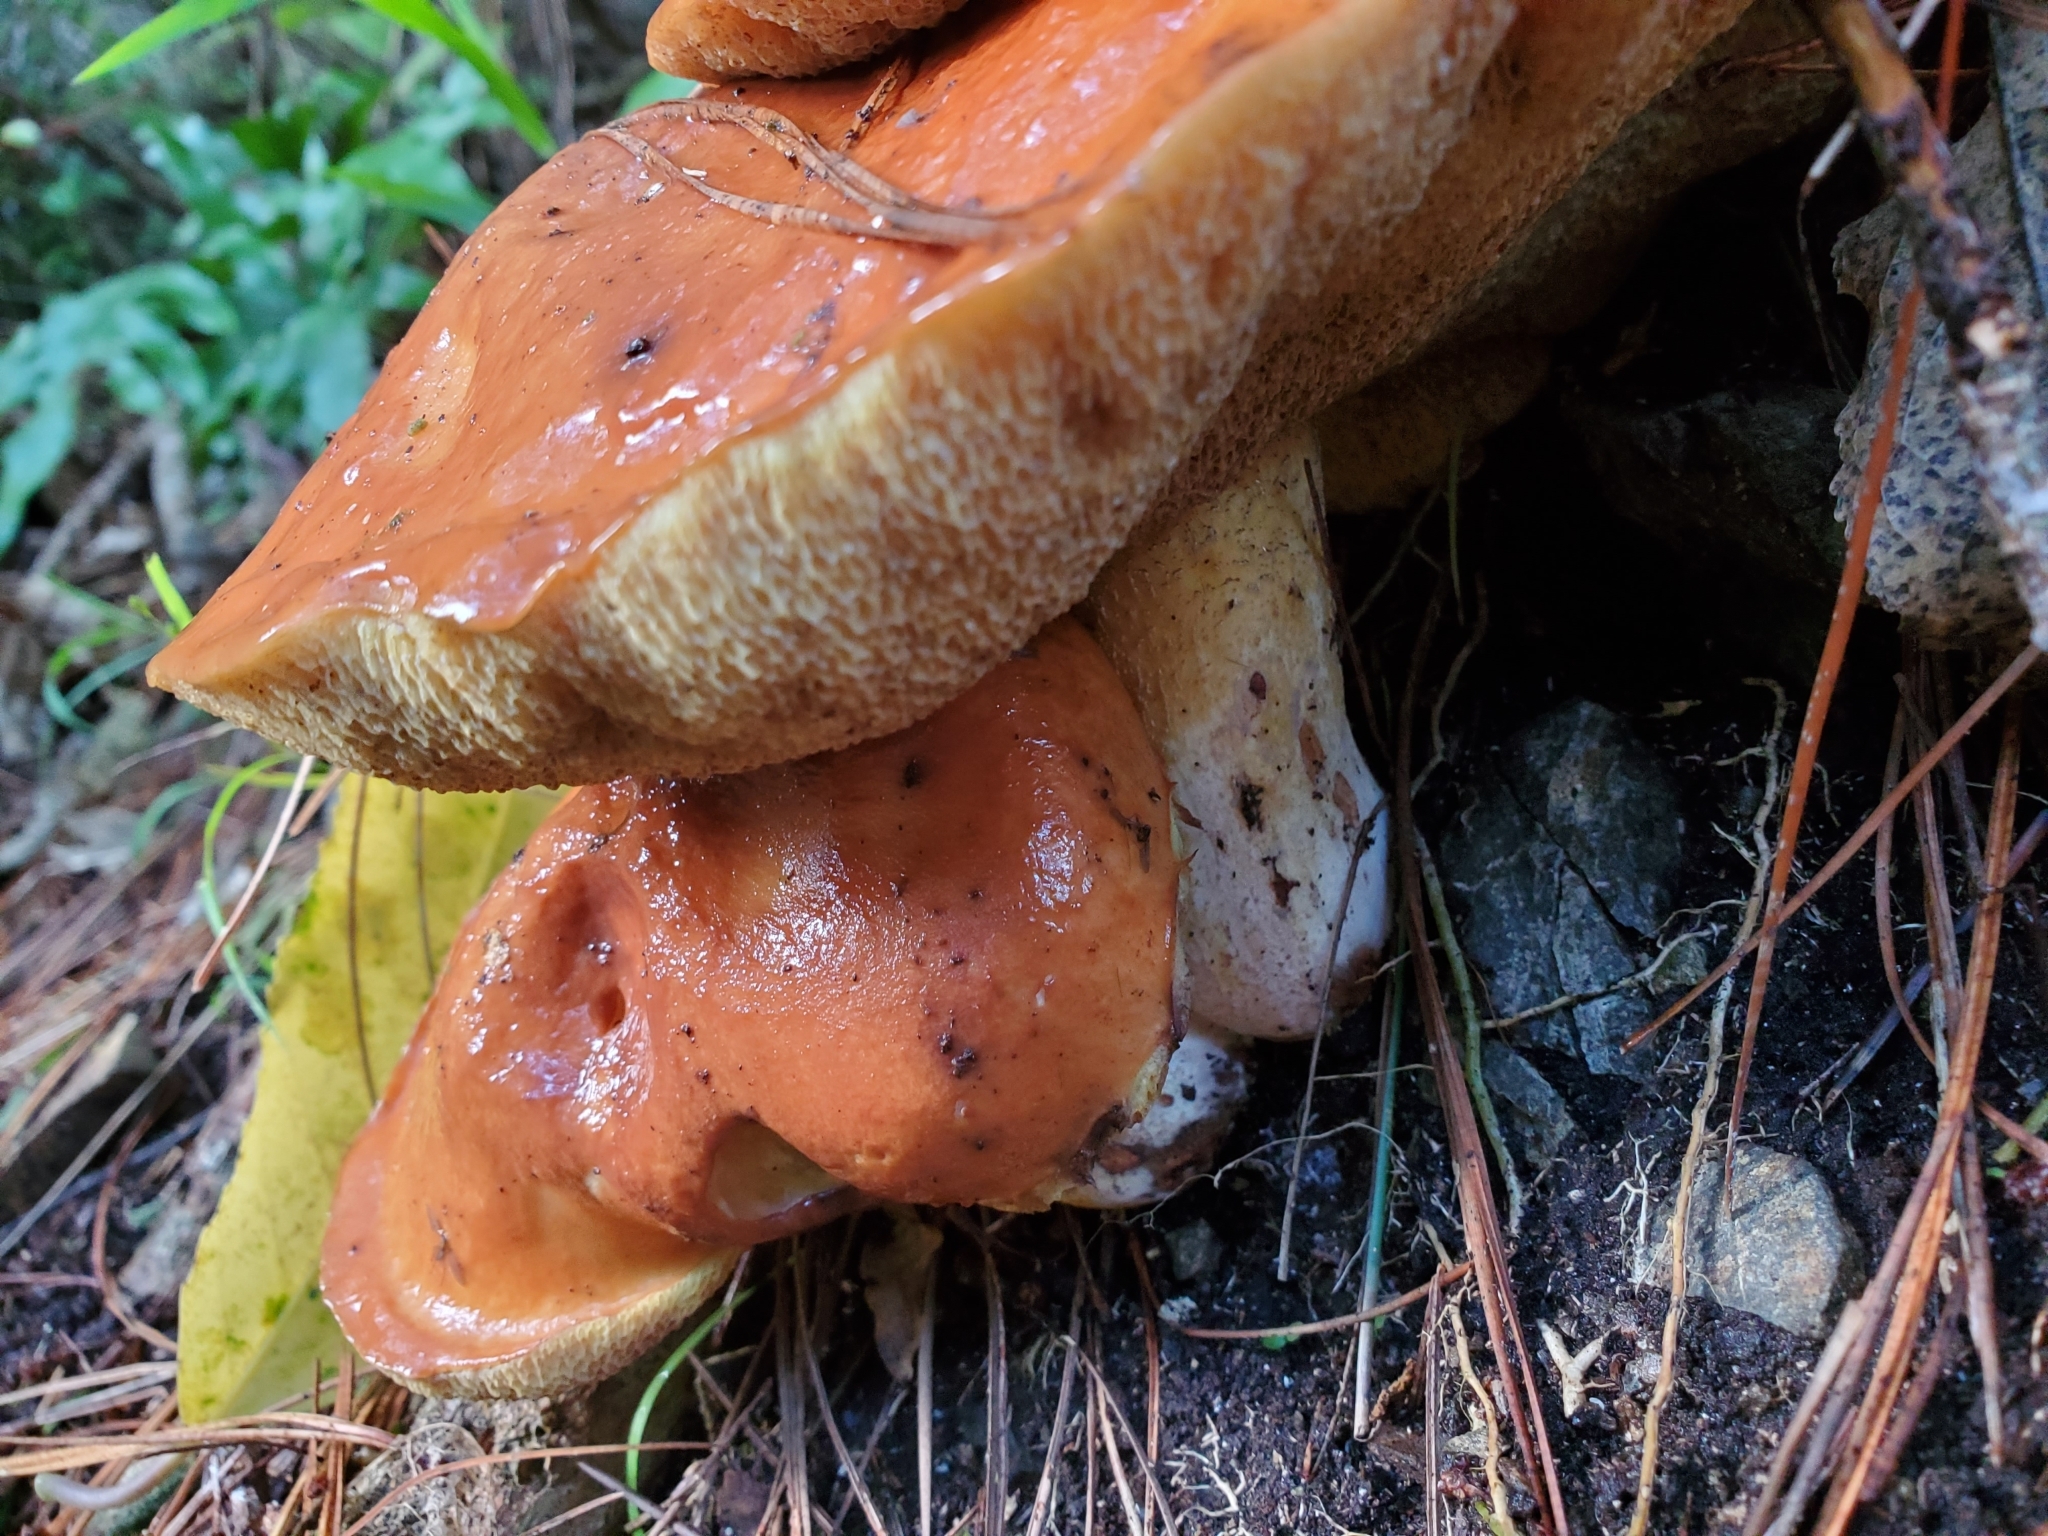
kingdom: Fungi
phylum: Basidiomycota
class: Agaricomycetes
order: Boletales
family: Suillaceae
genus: Suillus
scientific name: Suillus granulatus
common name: Weeping bolete
